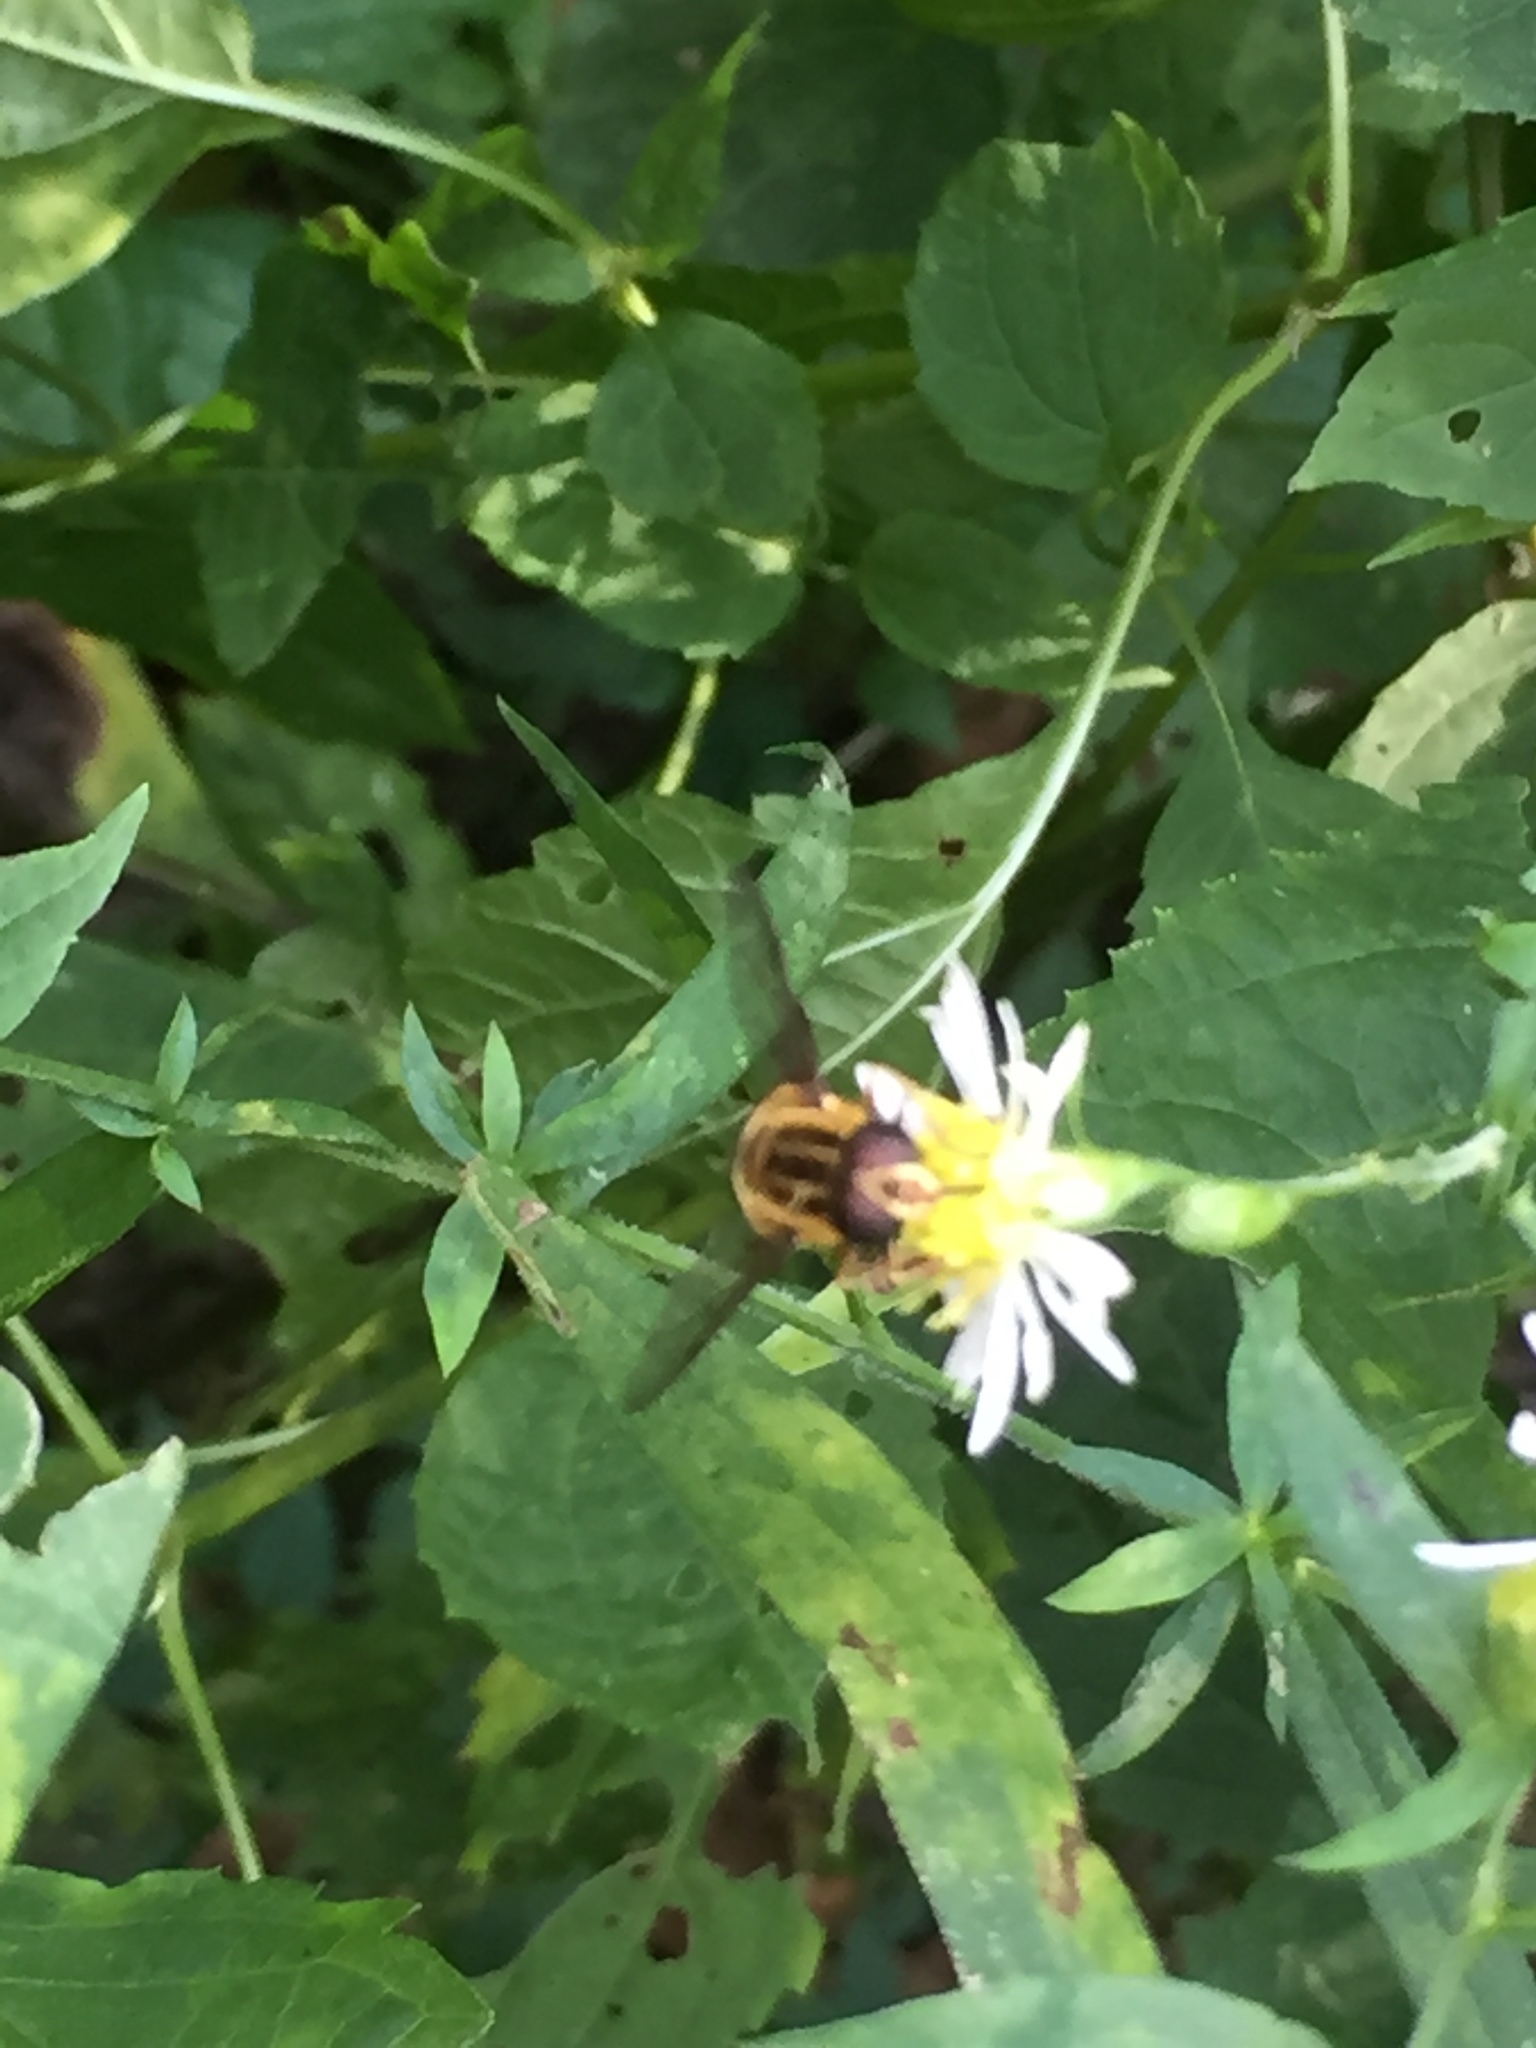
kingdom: Animalia
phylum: Arthropoda
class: Insecta
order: Diptera
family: Syrphidae
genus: Helophilus
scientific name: Helophilus fasciatus
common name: Narrow-headed marsh fly
